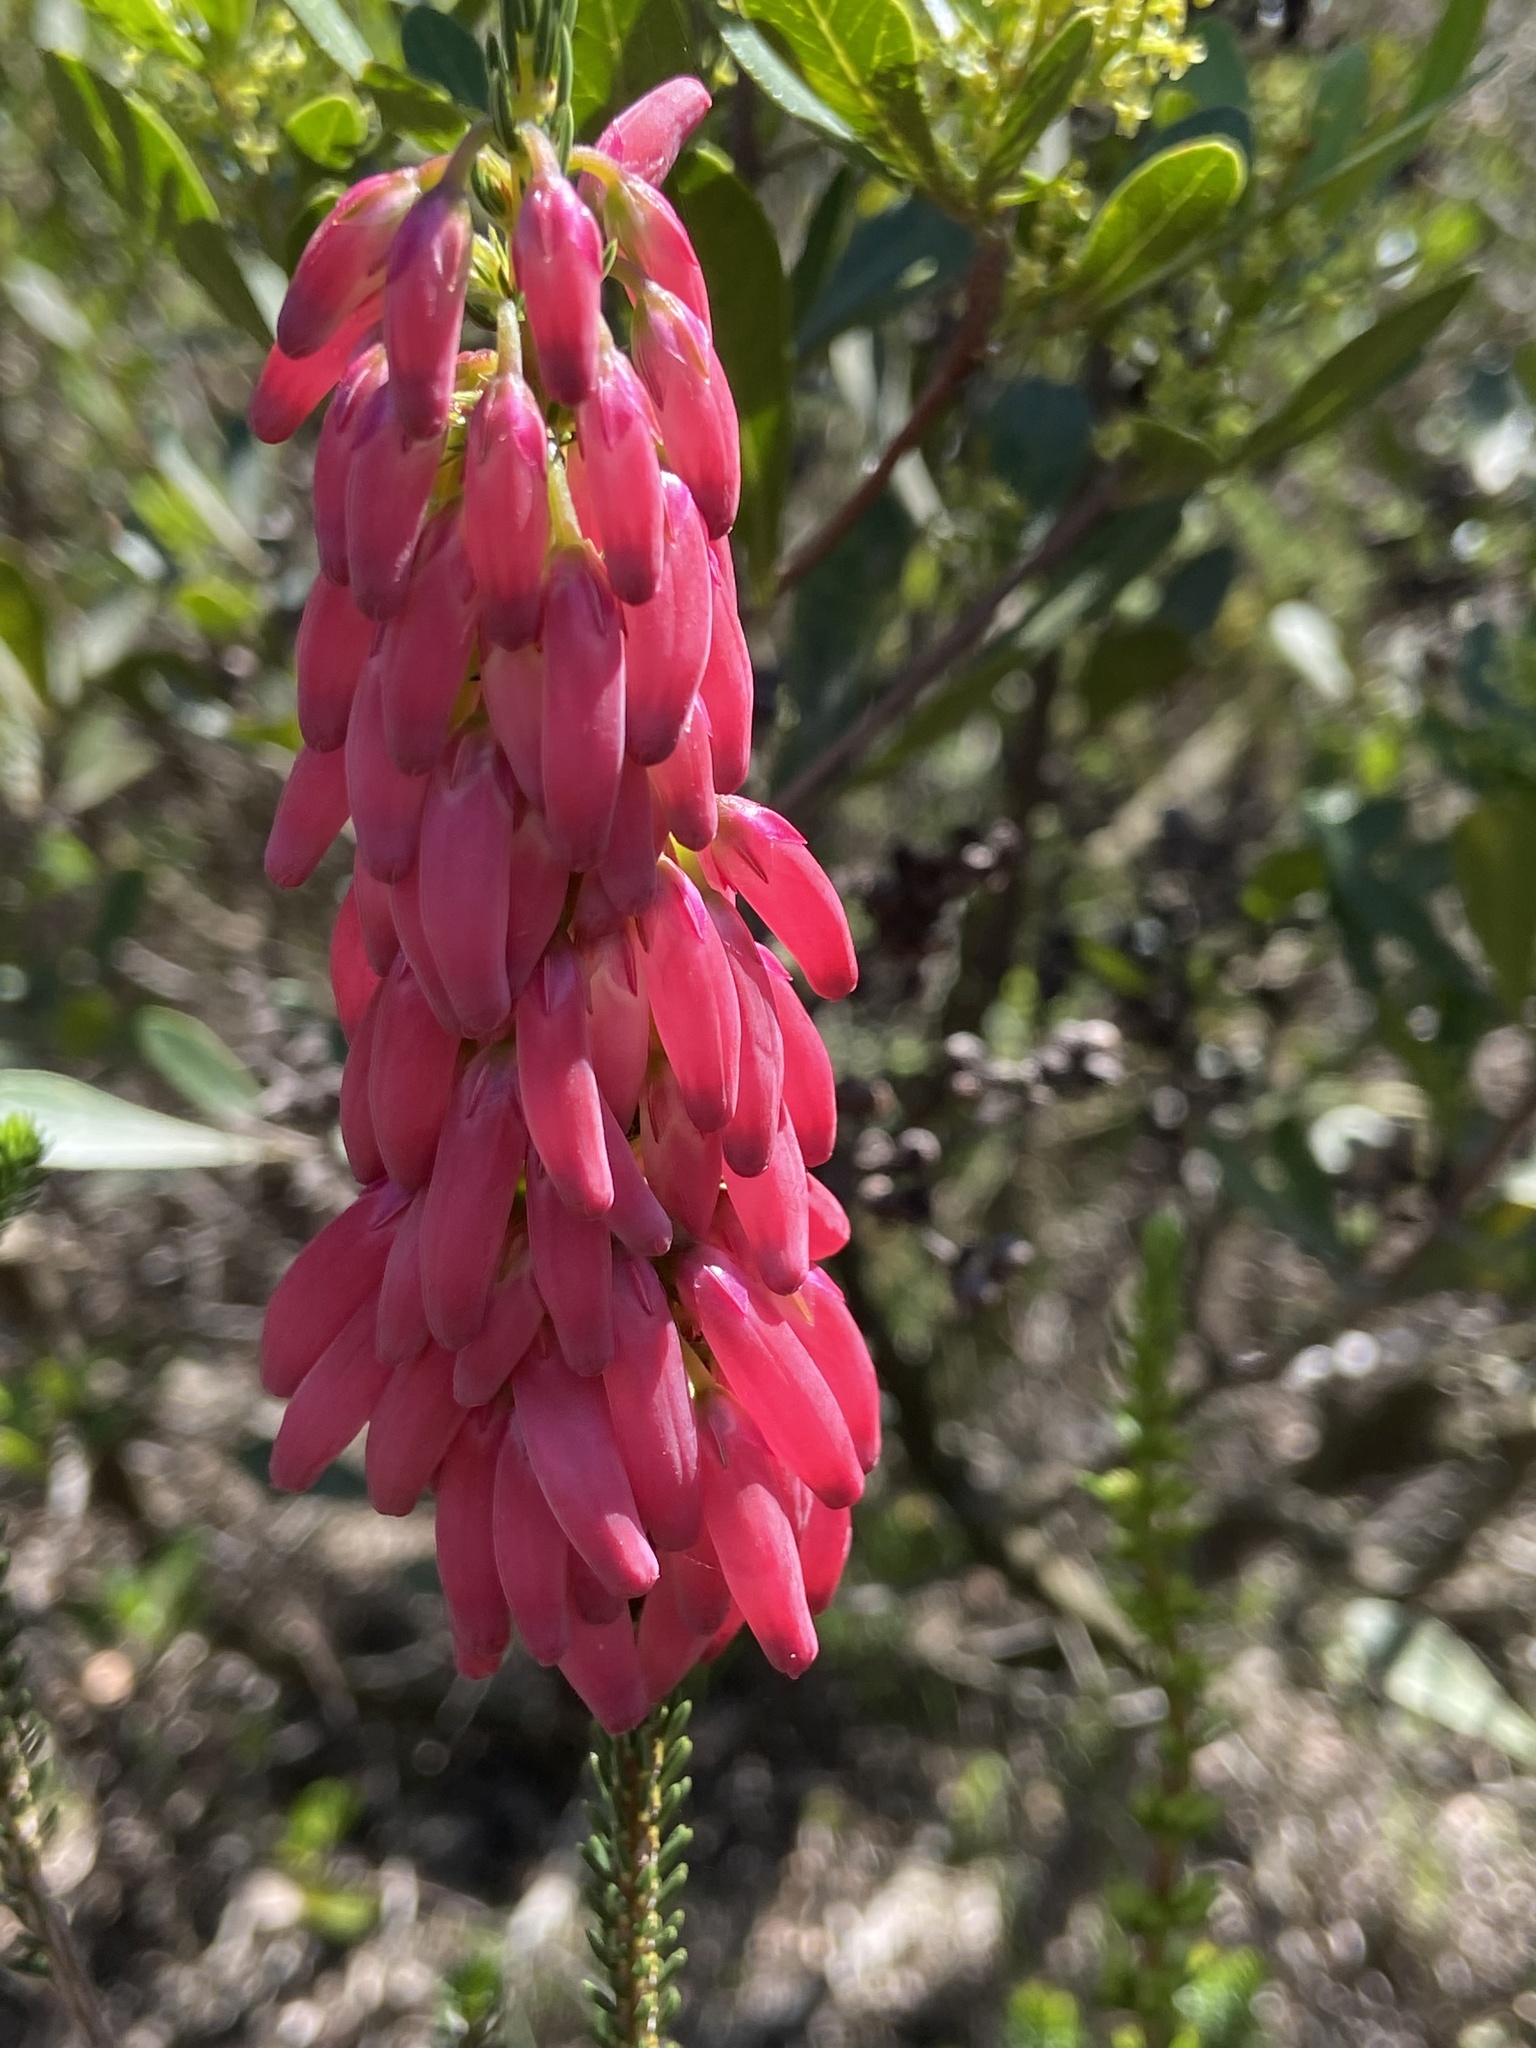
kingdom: Plantae
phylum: Tracheophyta
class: Magnoliopsida
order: Ericales
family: Ericaceae
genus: Erica
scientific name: Erica mammosa
